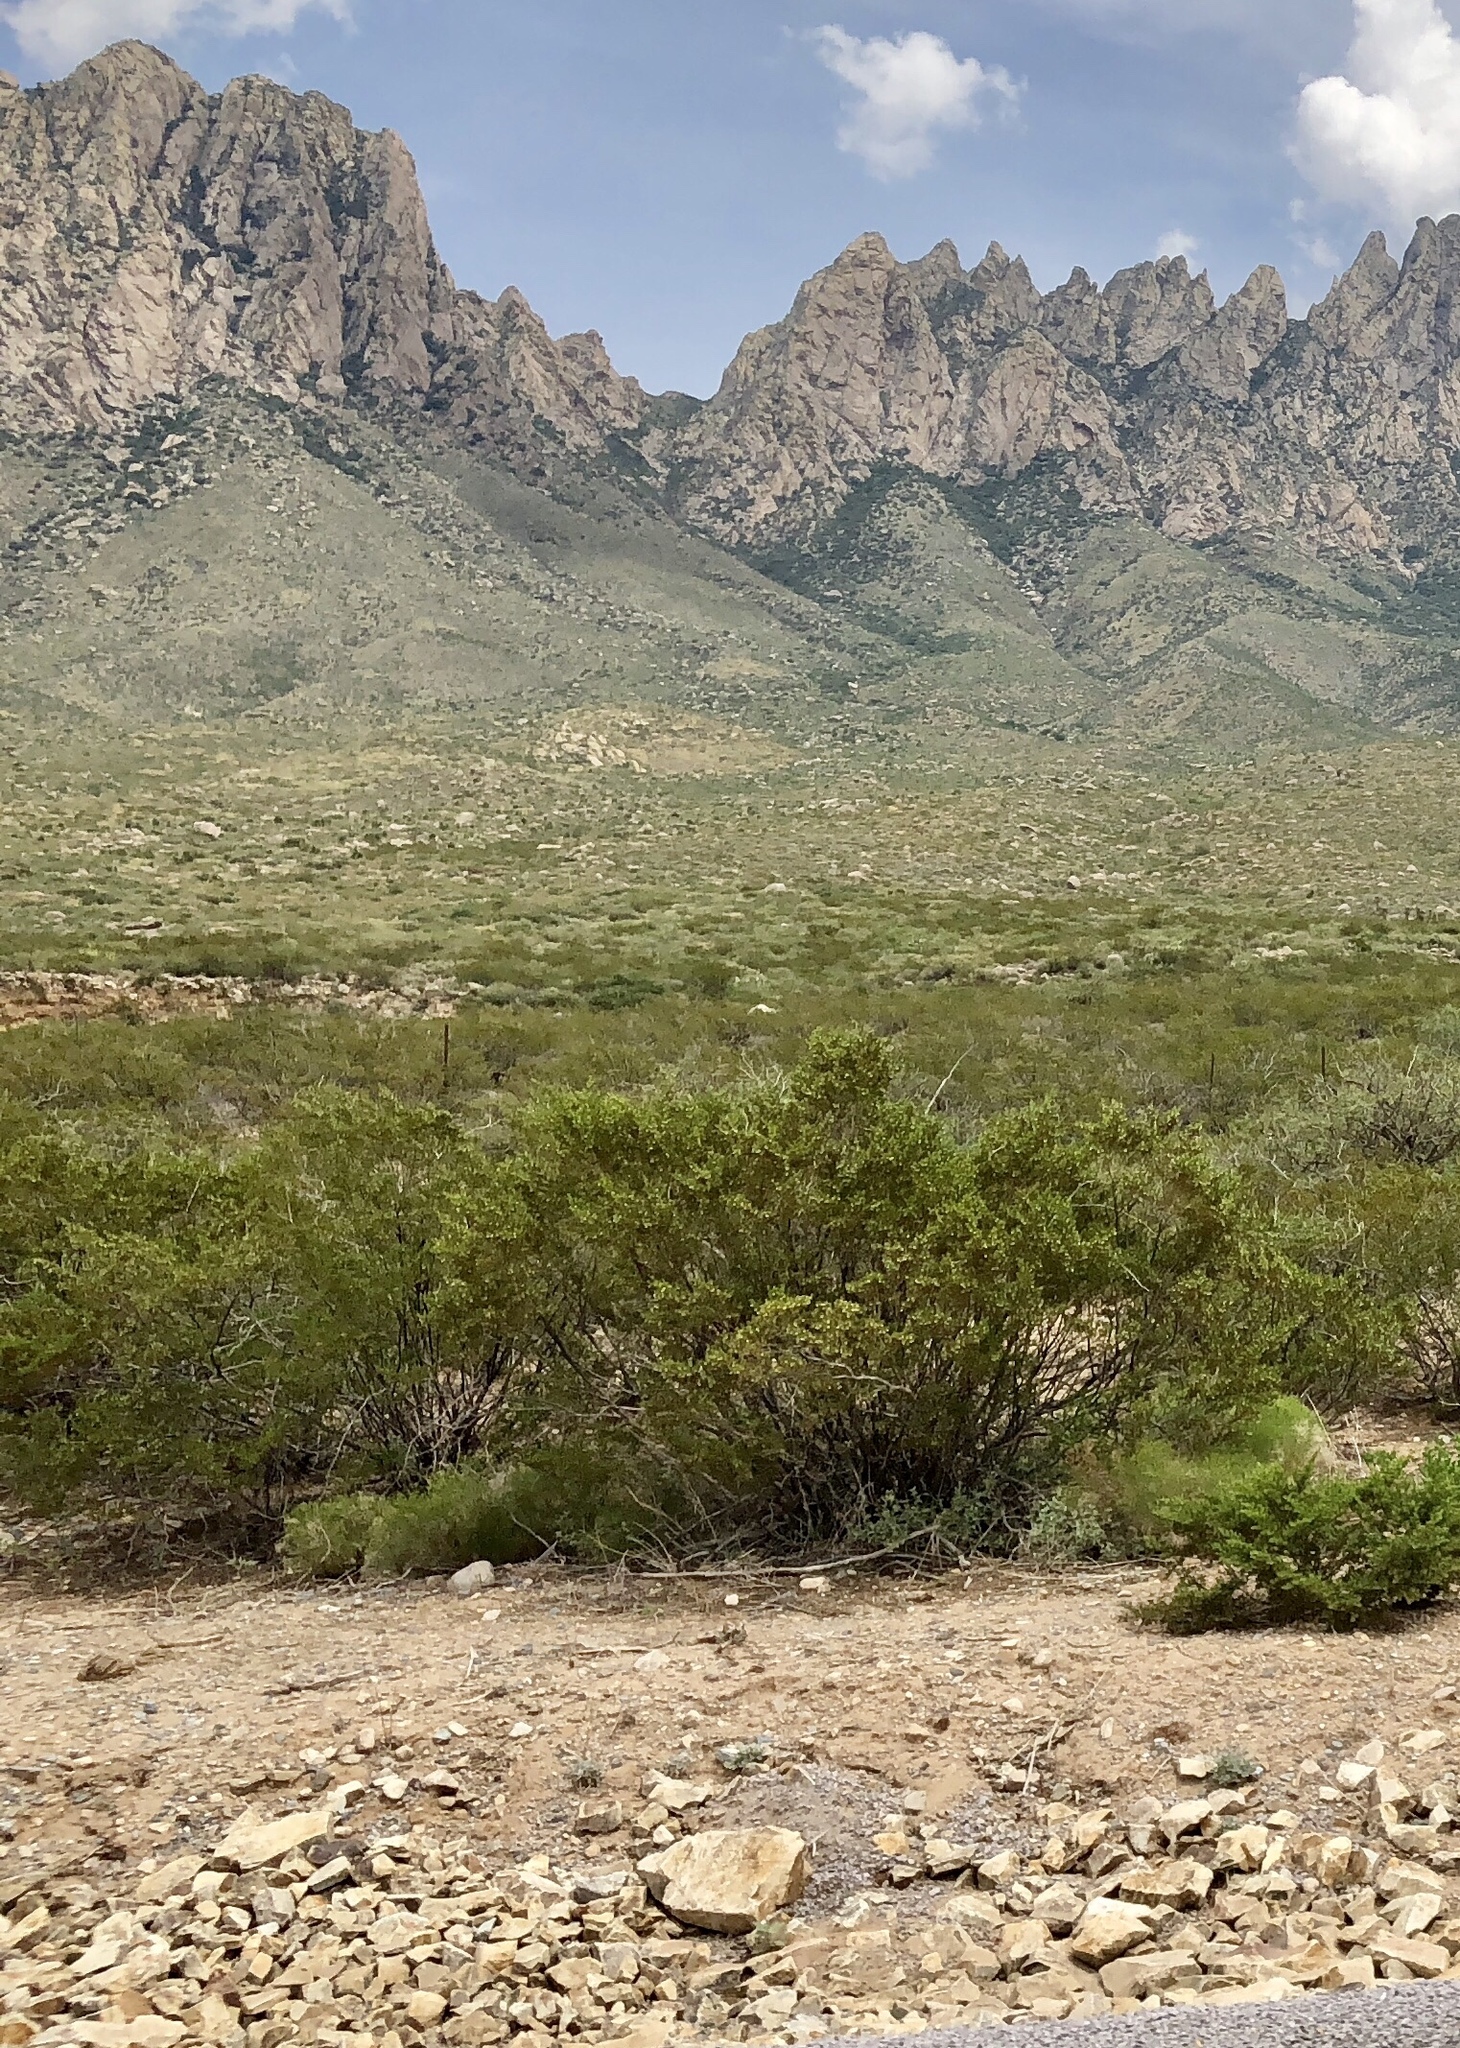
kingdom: Plantae
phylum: Tracheophyta
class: Magnoliopsida
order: Zygophyllales
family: Zygophyllaceae
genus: Larrea
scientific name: Larrea tridentata
